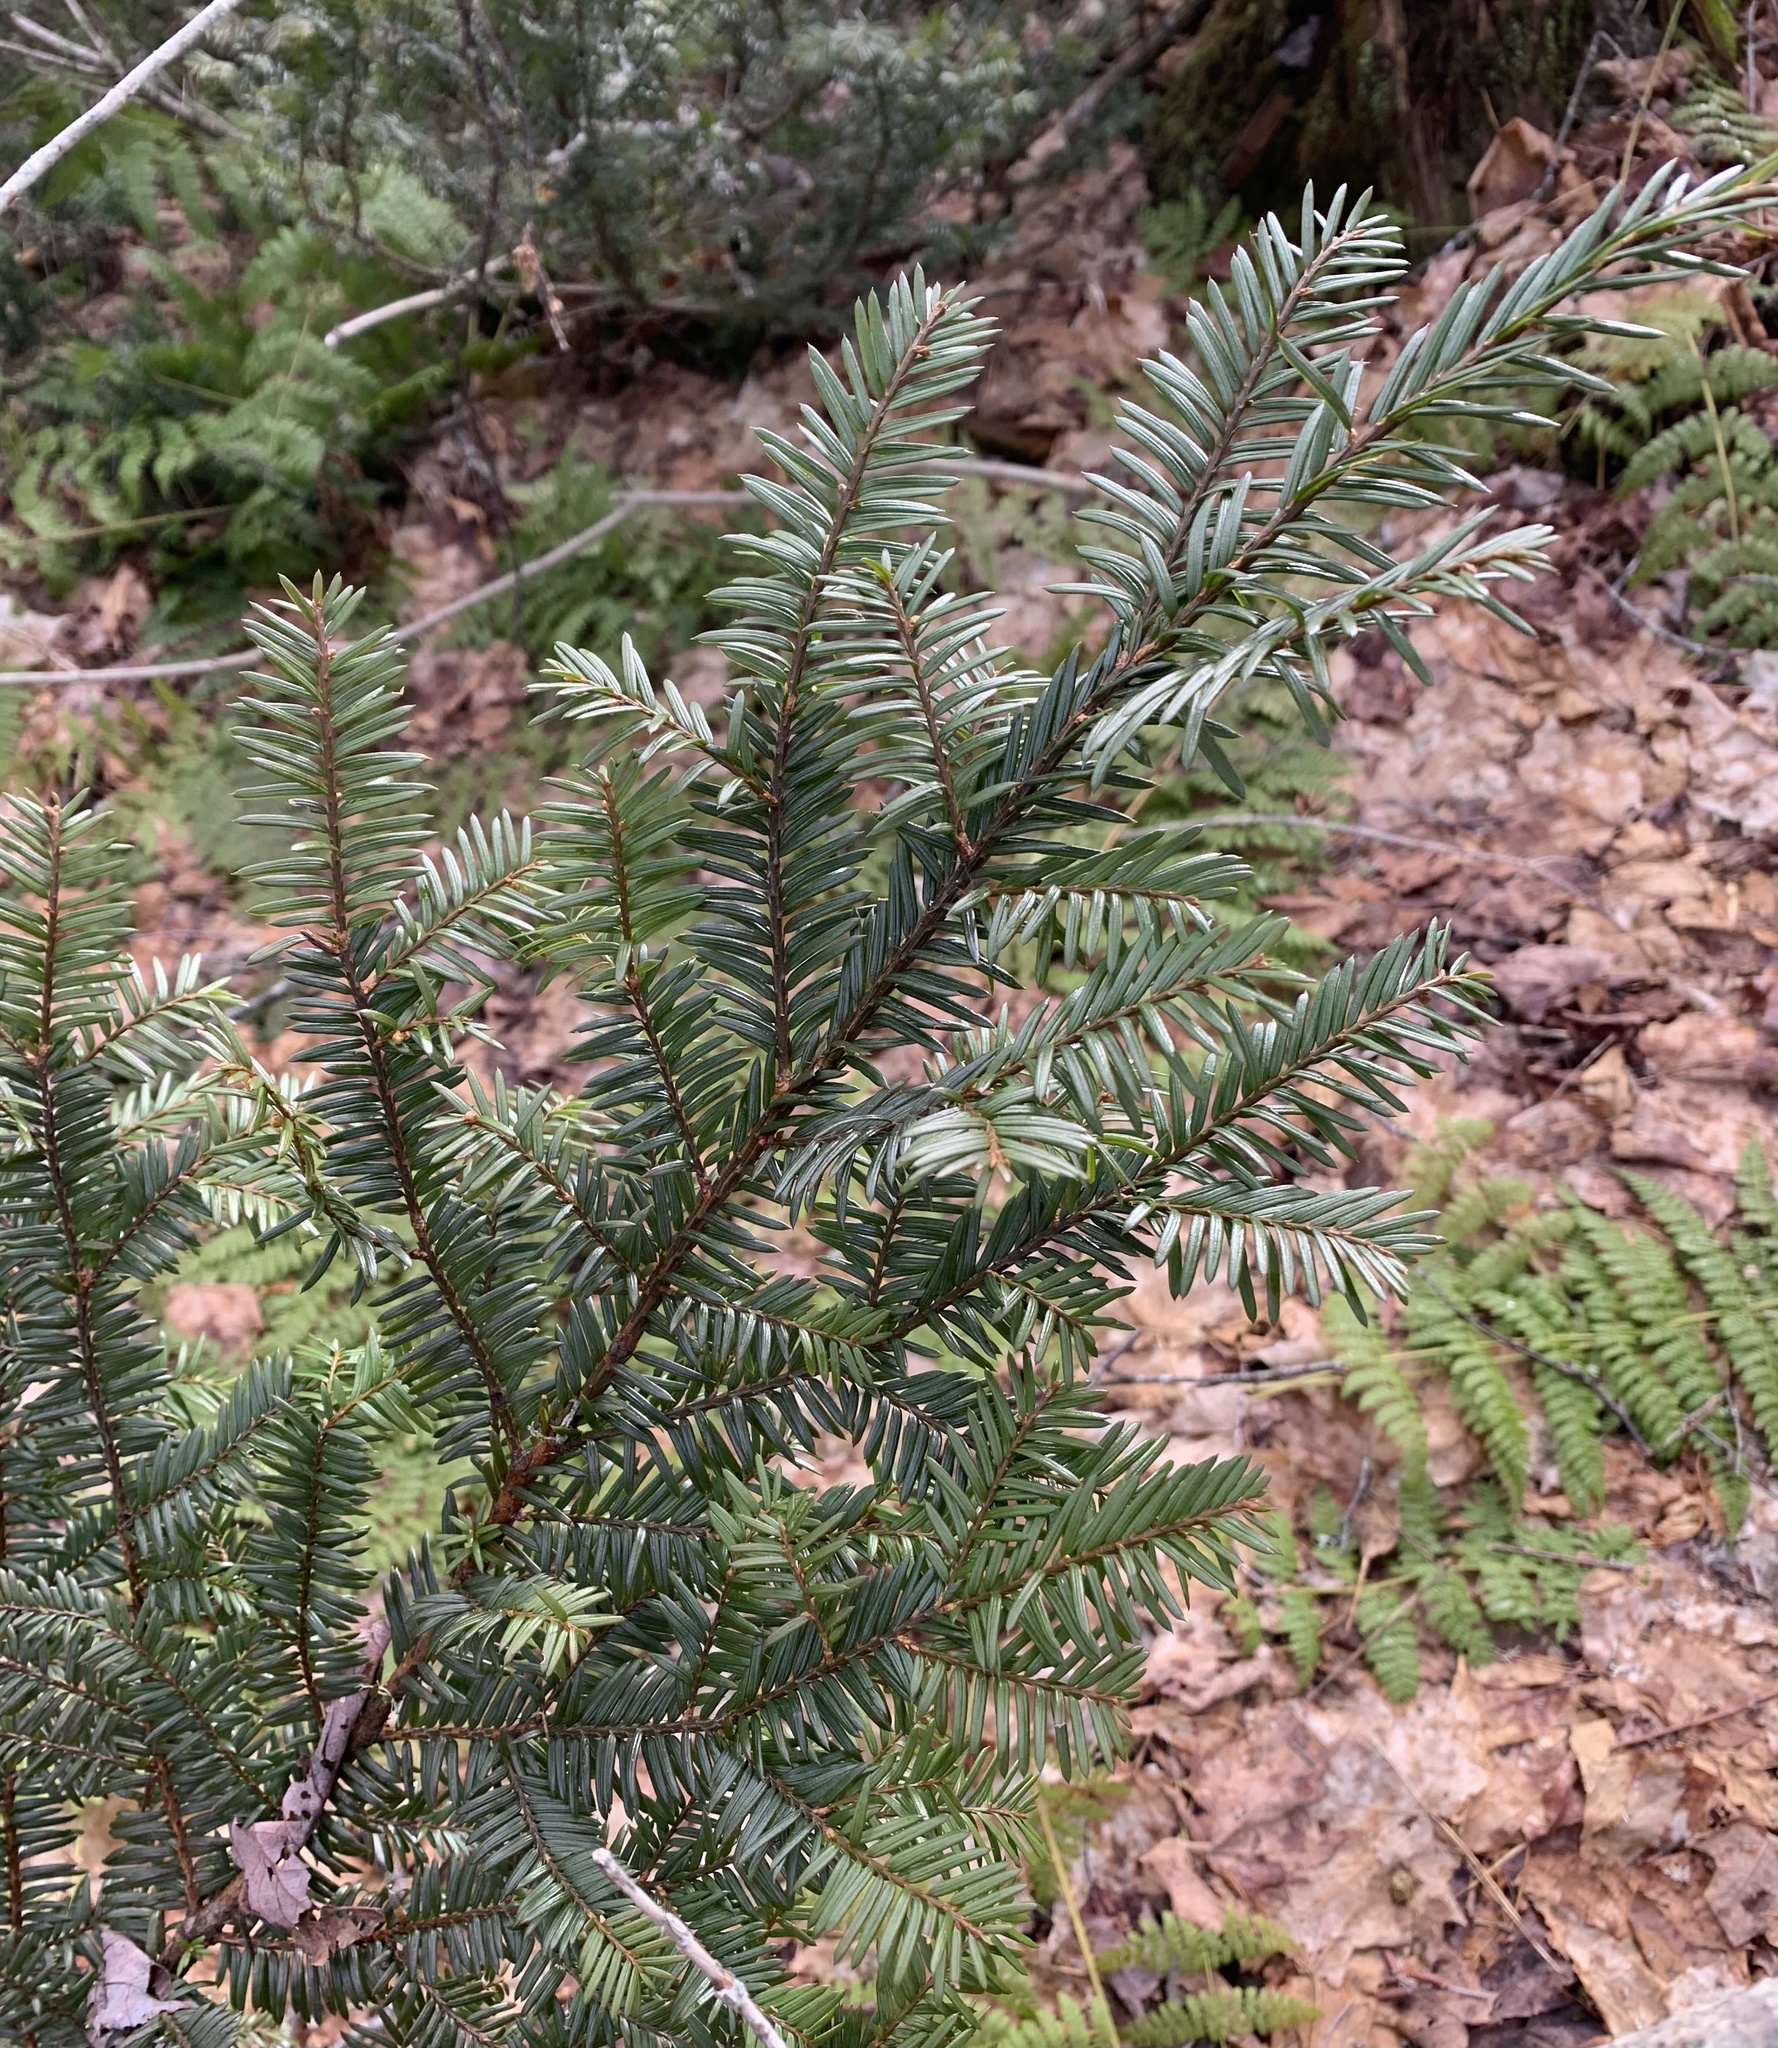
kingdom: Plantae
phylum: Tracheophyta
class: Pinopsida
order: Pinales
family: Taxaceae
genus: Taxus
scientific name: Taxus canadensis
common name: American yew
